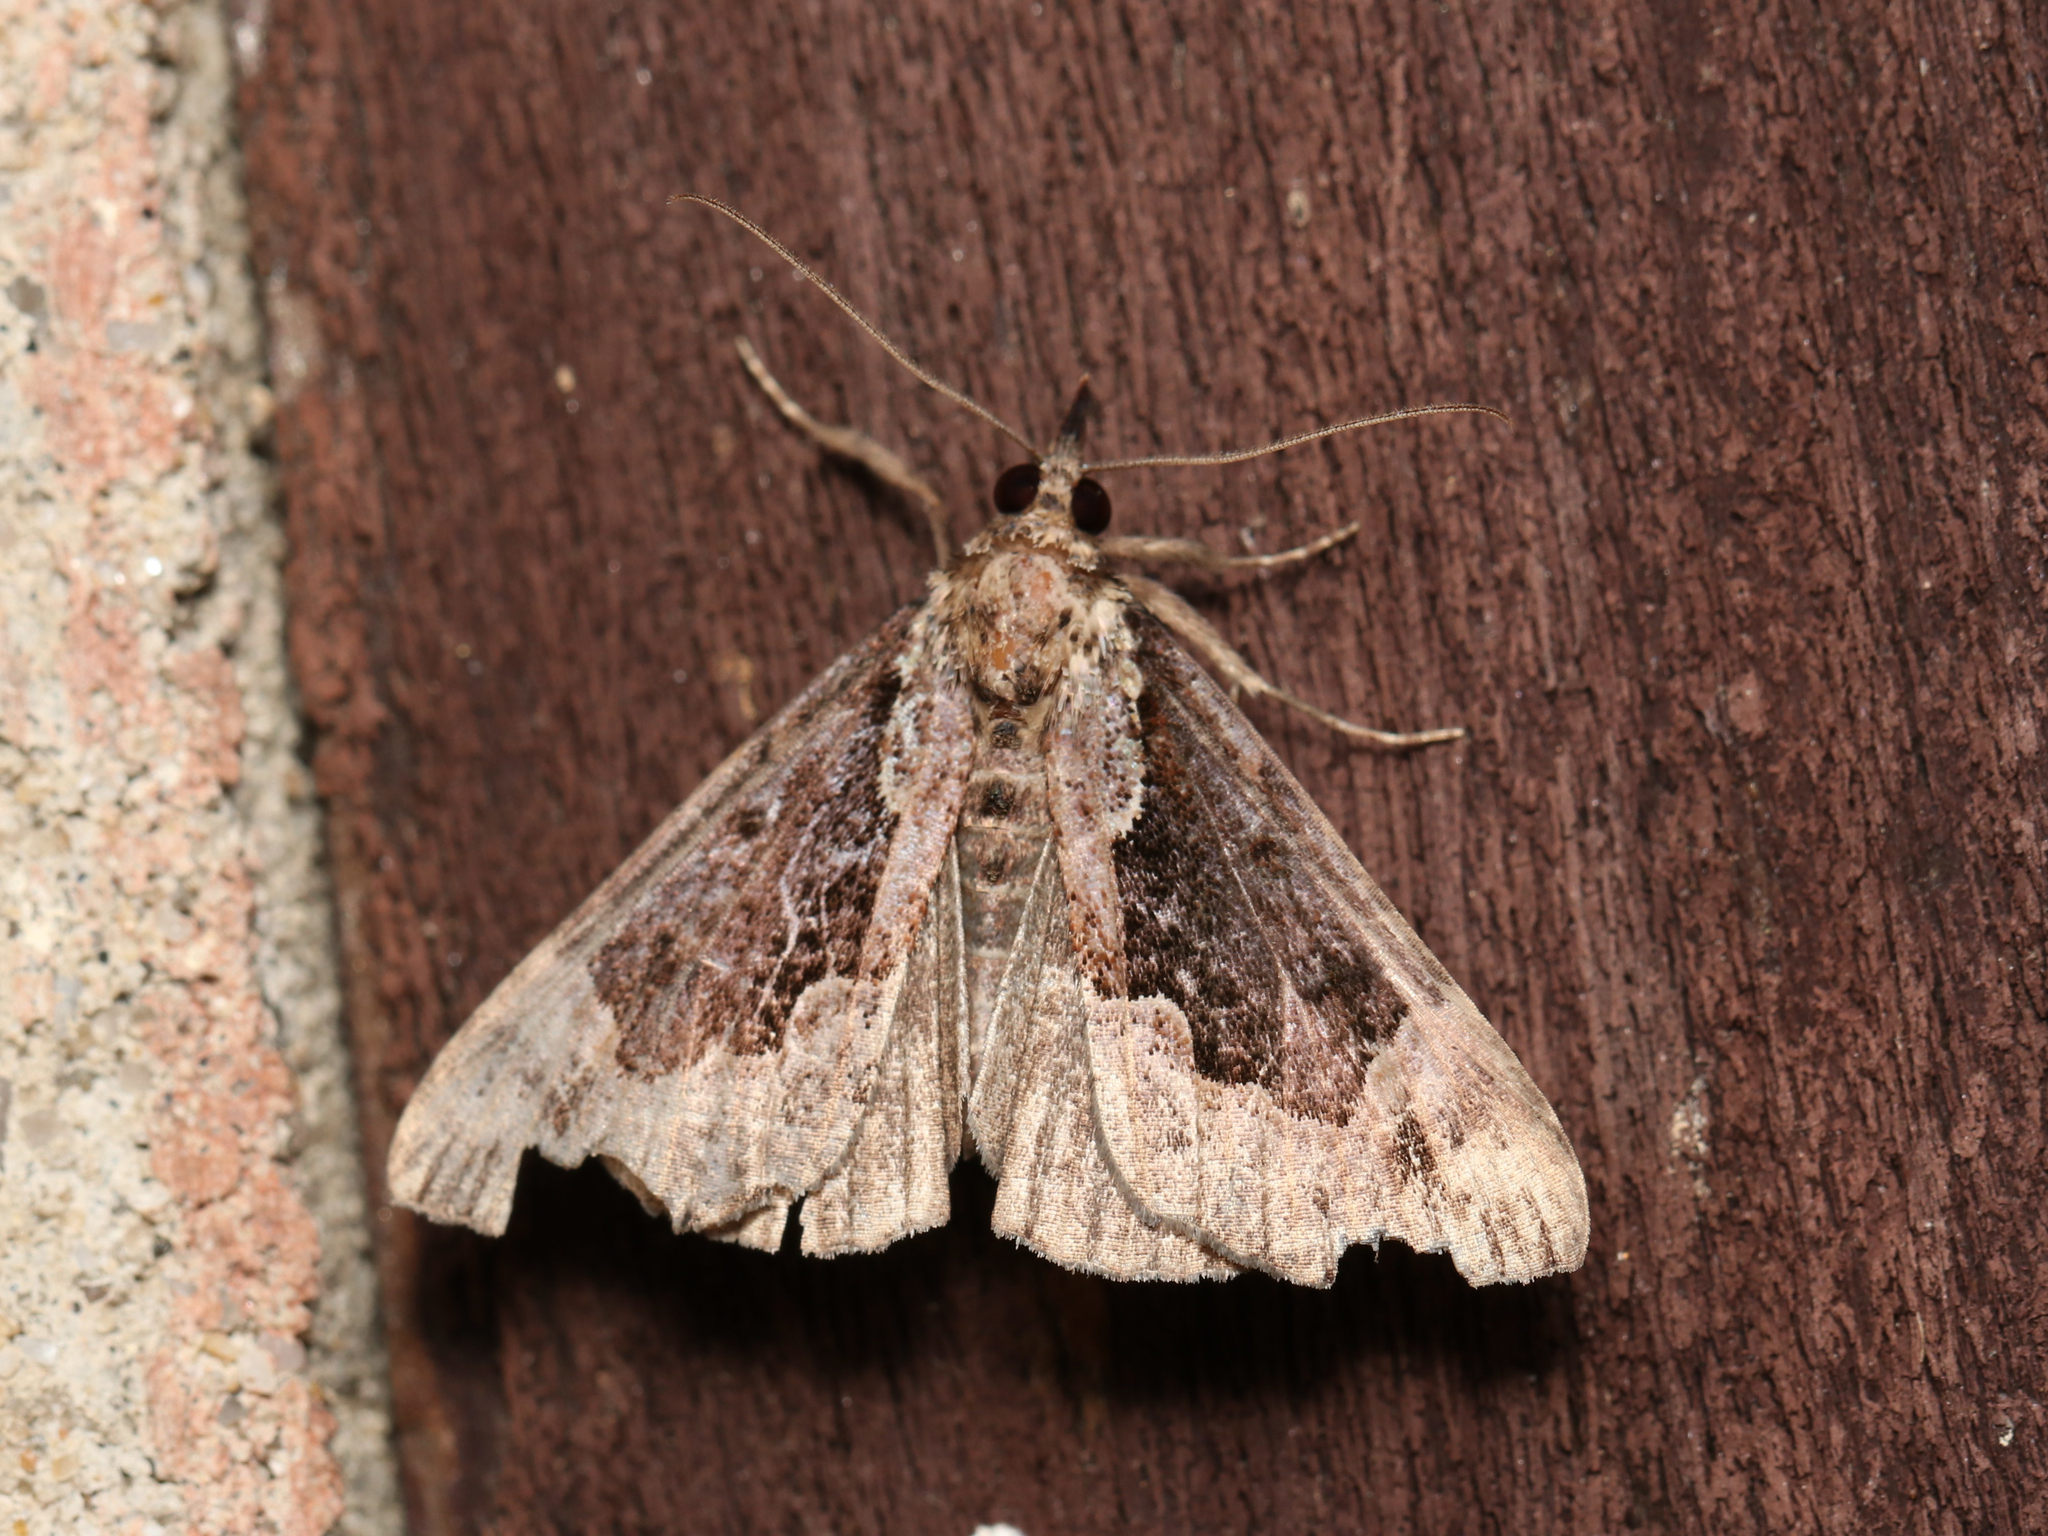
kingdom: Animalia
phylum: Arthropoda
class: Insecta
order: Lepidoptera
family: Erebidae
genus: Hypena
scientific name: Hypena baltimoralis
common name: Baltimore snout
